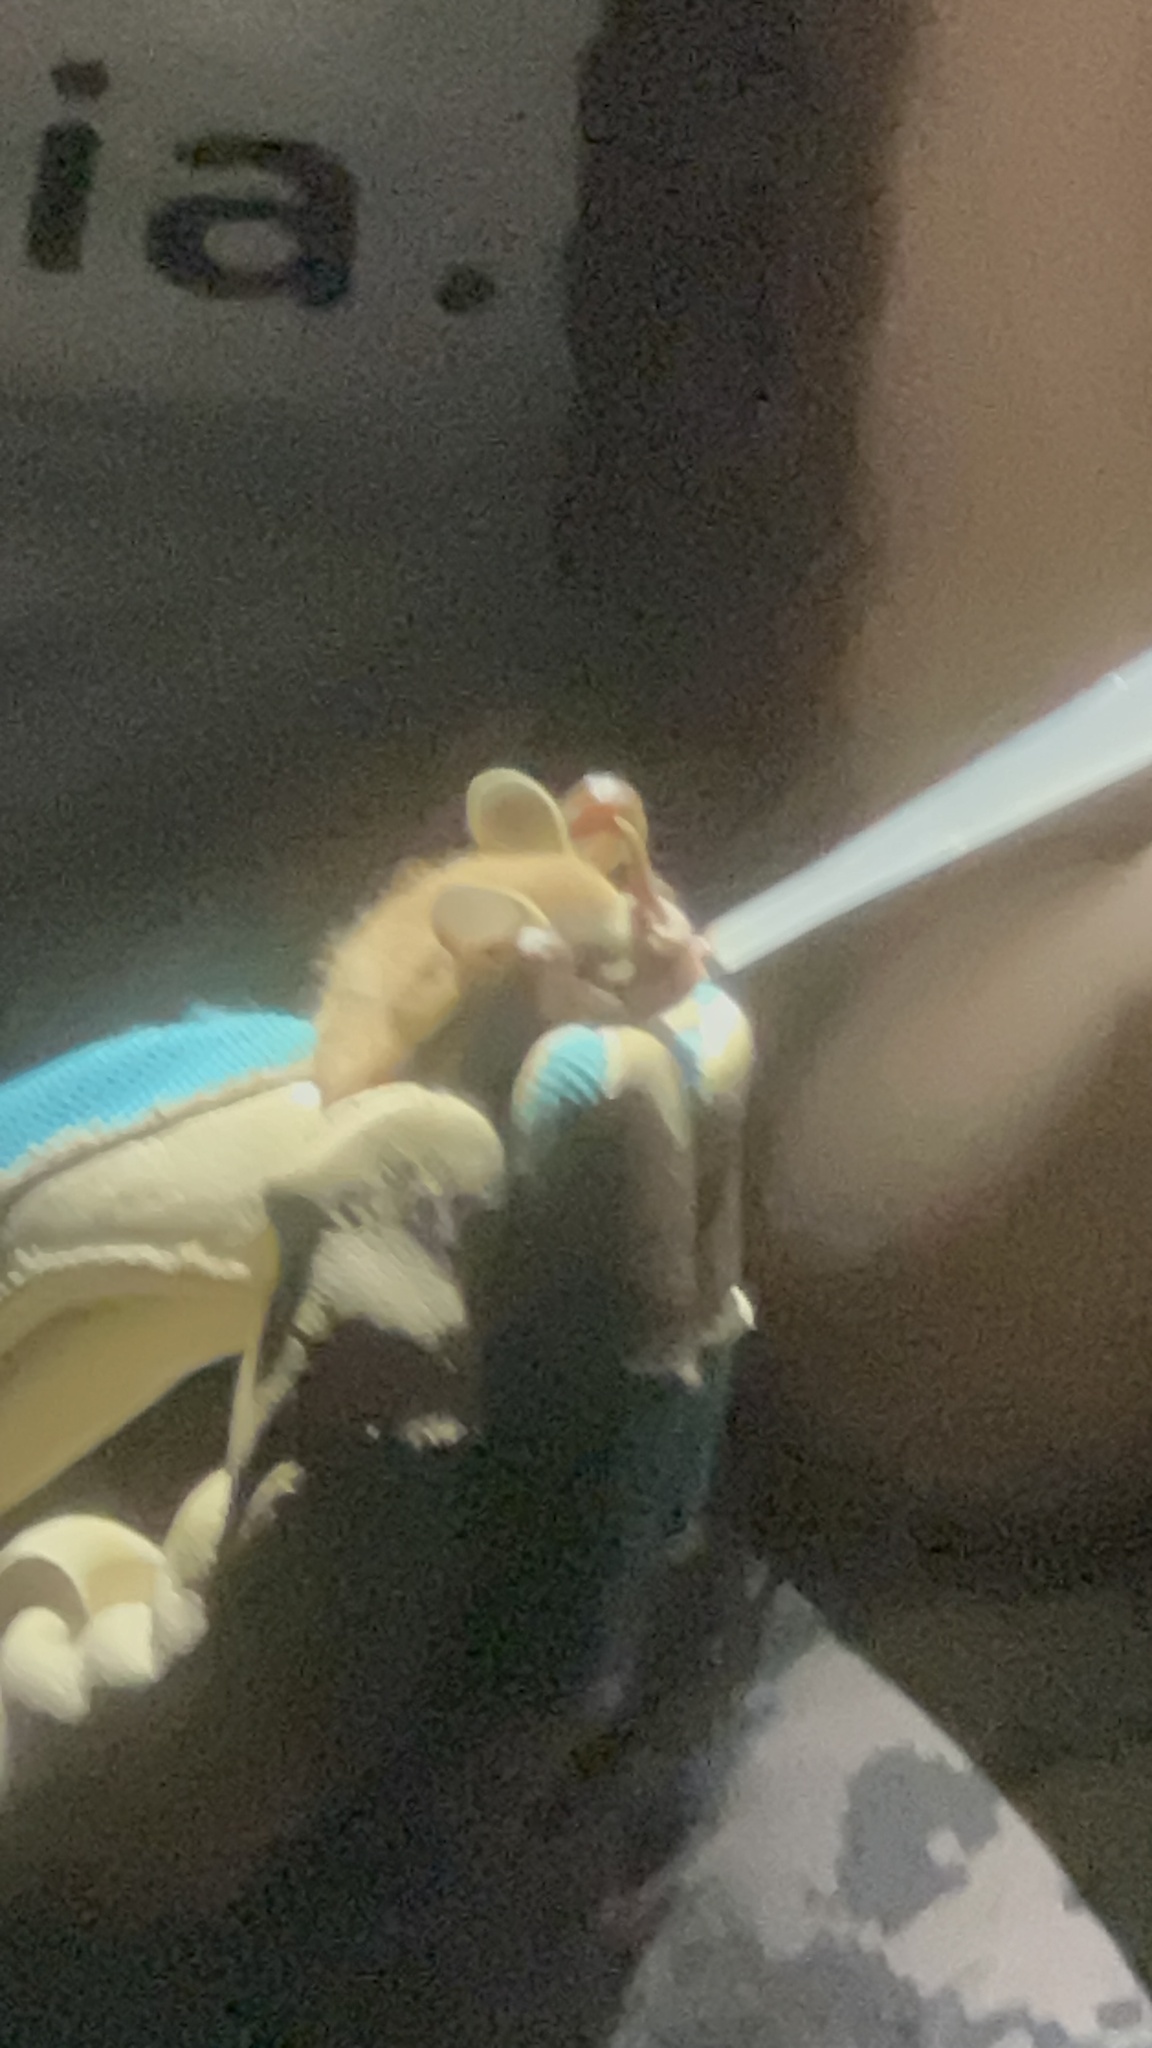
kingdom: Animalia
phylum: Chordata
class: Mammalia
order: Chiroptera
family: Phyllostomidae
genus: Artibeus
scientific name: Artibeus phaeotis
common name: Pygmy fruit-eating bat
